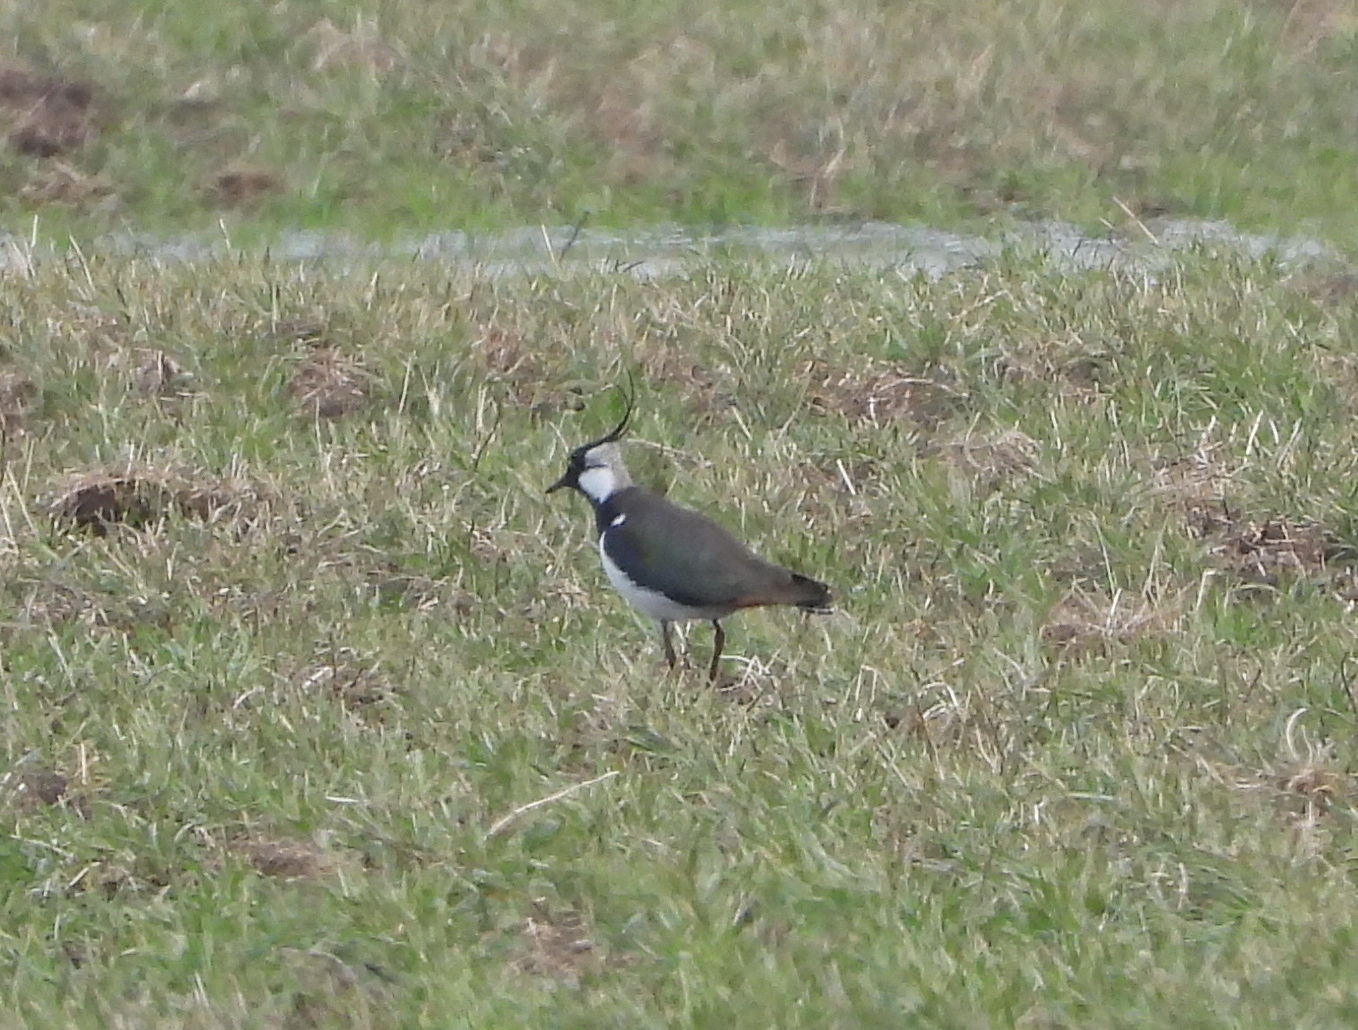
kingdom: Animalia
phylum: Chordata
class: Aves
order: Charadriiformes
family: Charadriidae
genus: Vanellus
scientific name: Vanellus vanellus
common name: Northern lapwing
